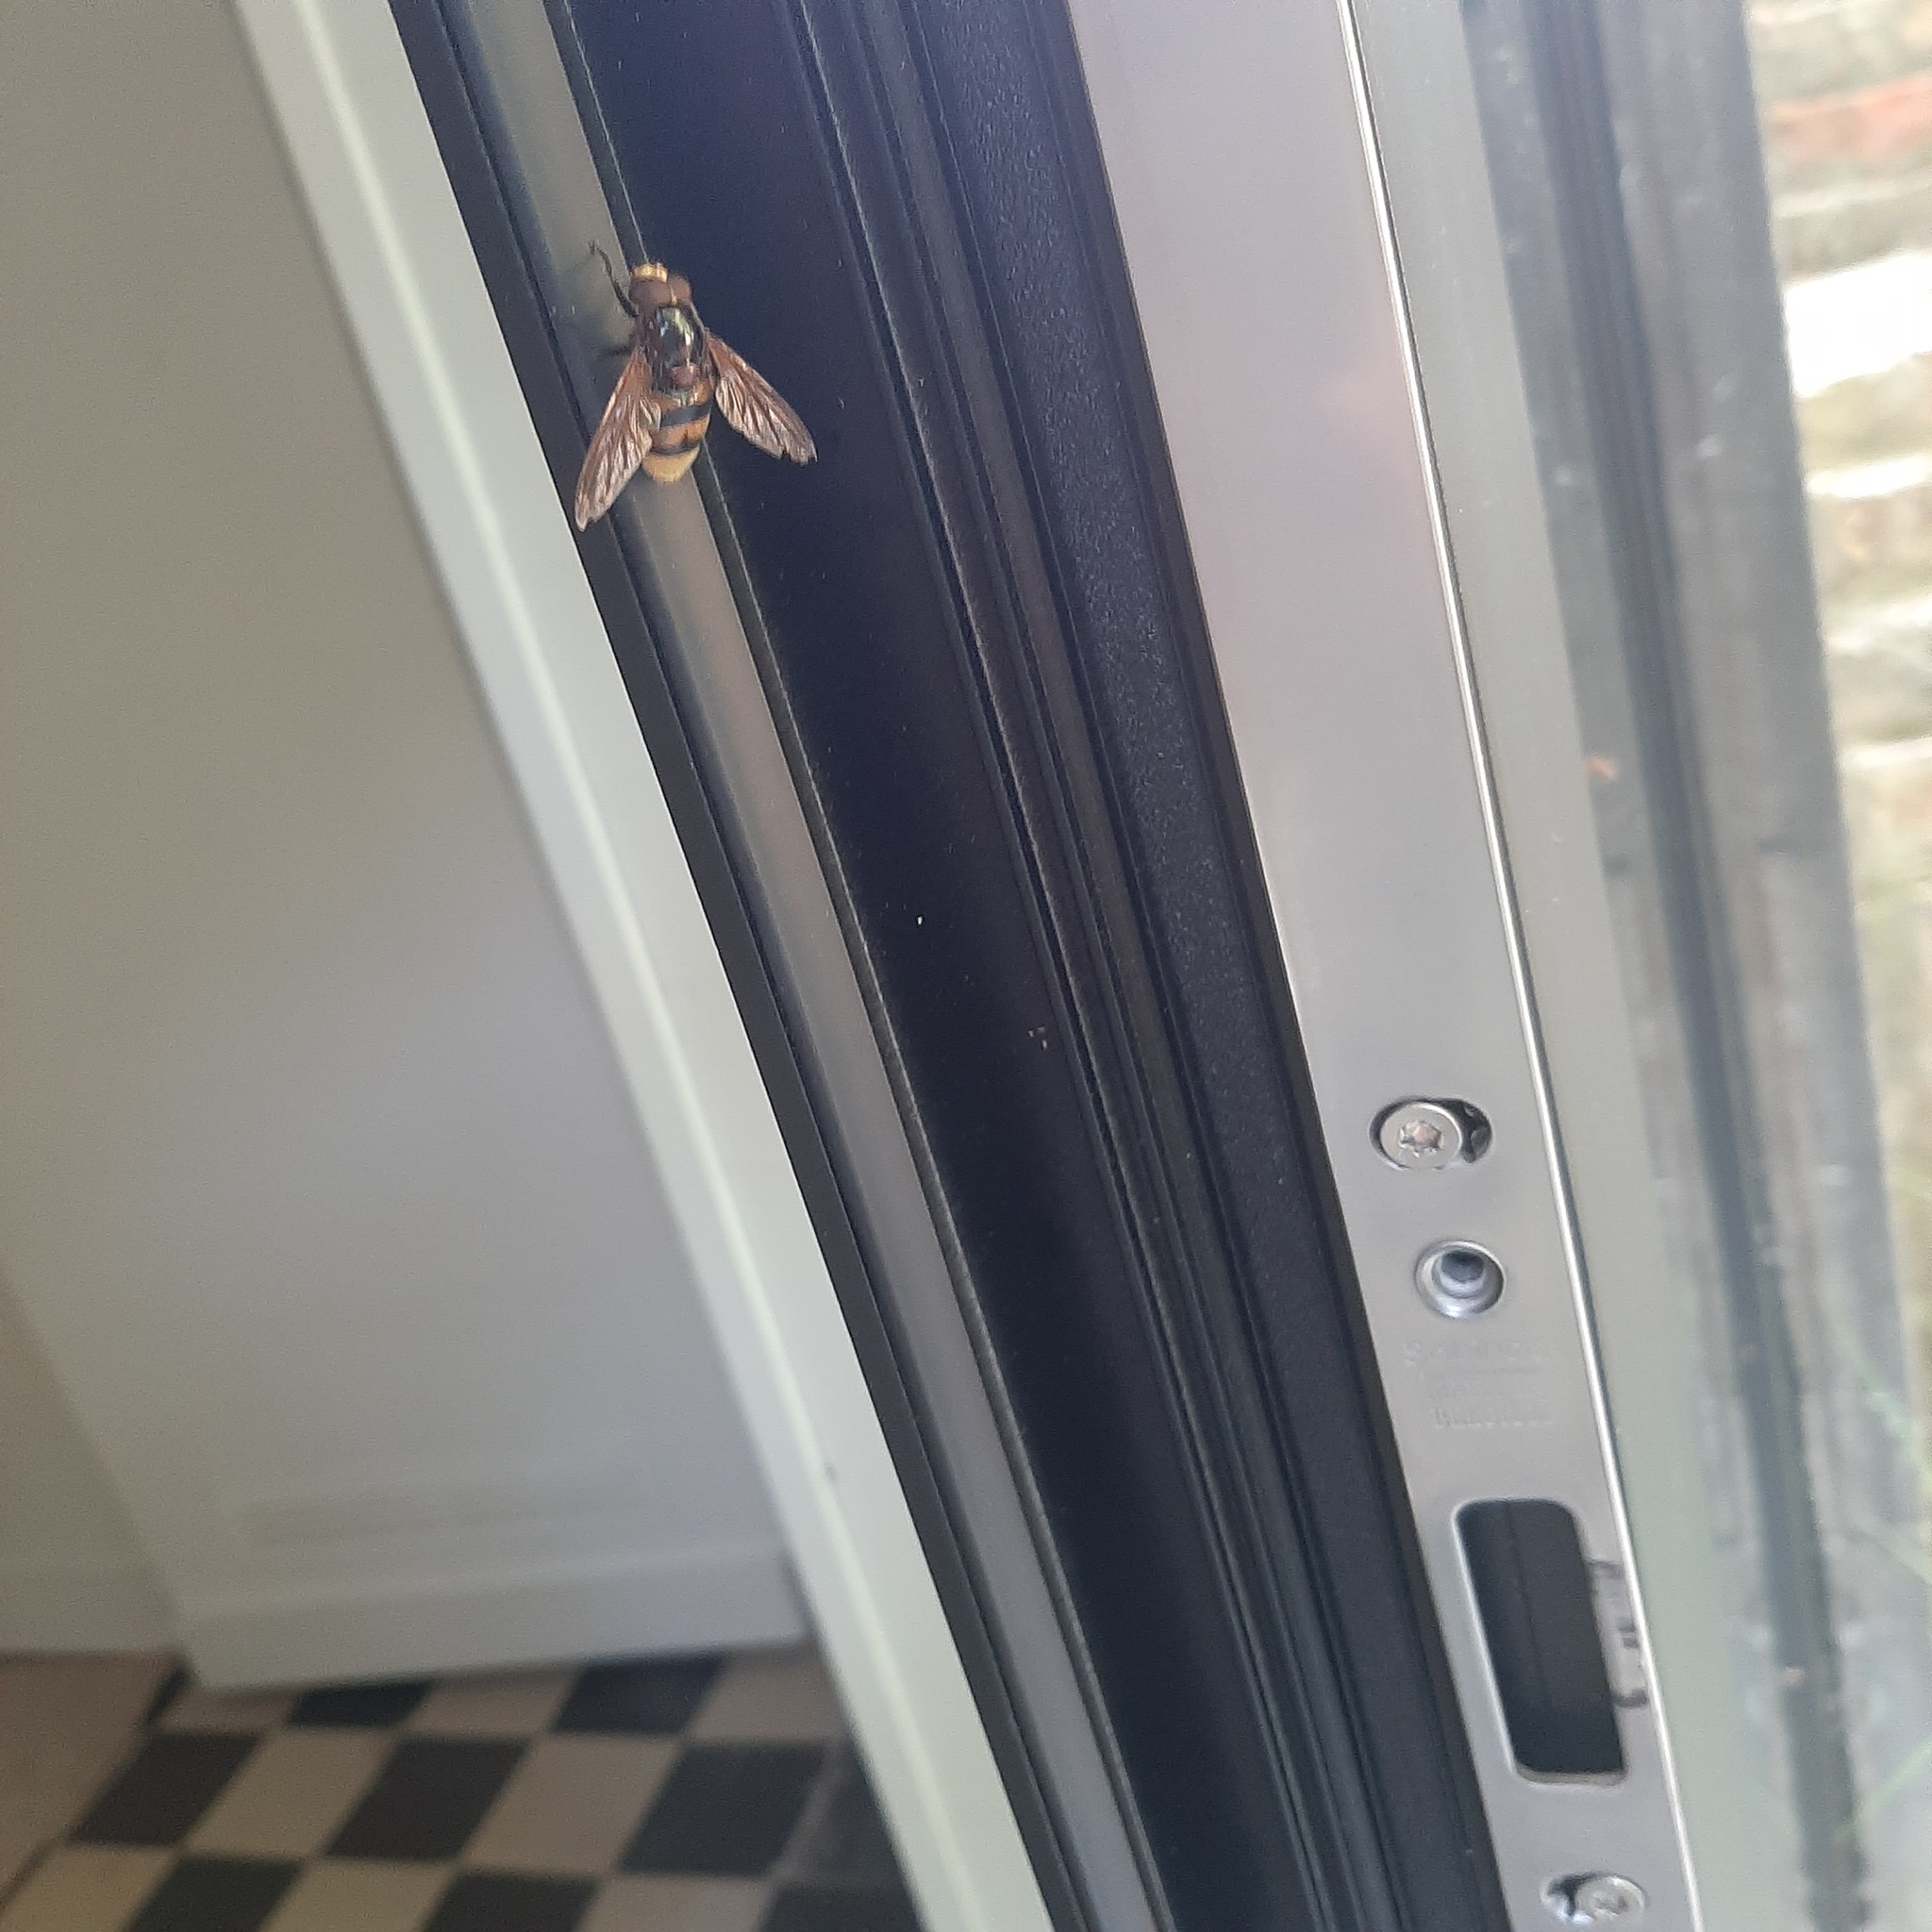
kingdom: Animalia
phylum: Arthropoda
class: Insecta
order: Diptera
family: Syrphidae
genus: Volucella
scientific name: Volucella zonaria
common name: Hornet hoverfly
